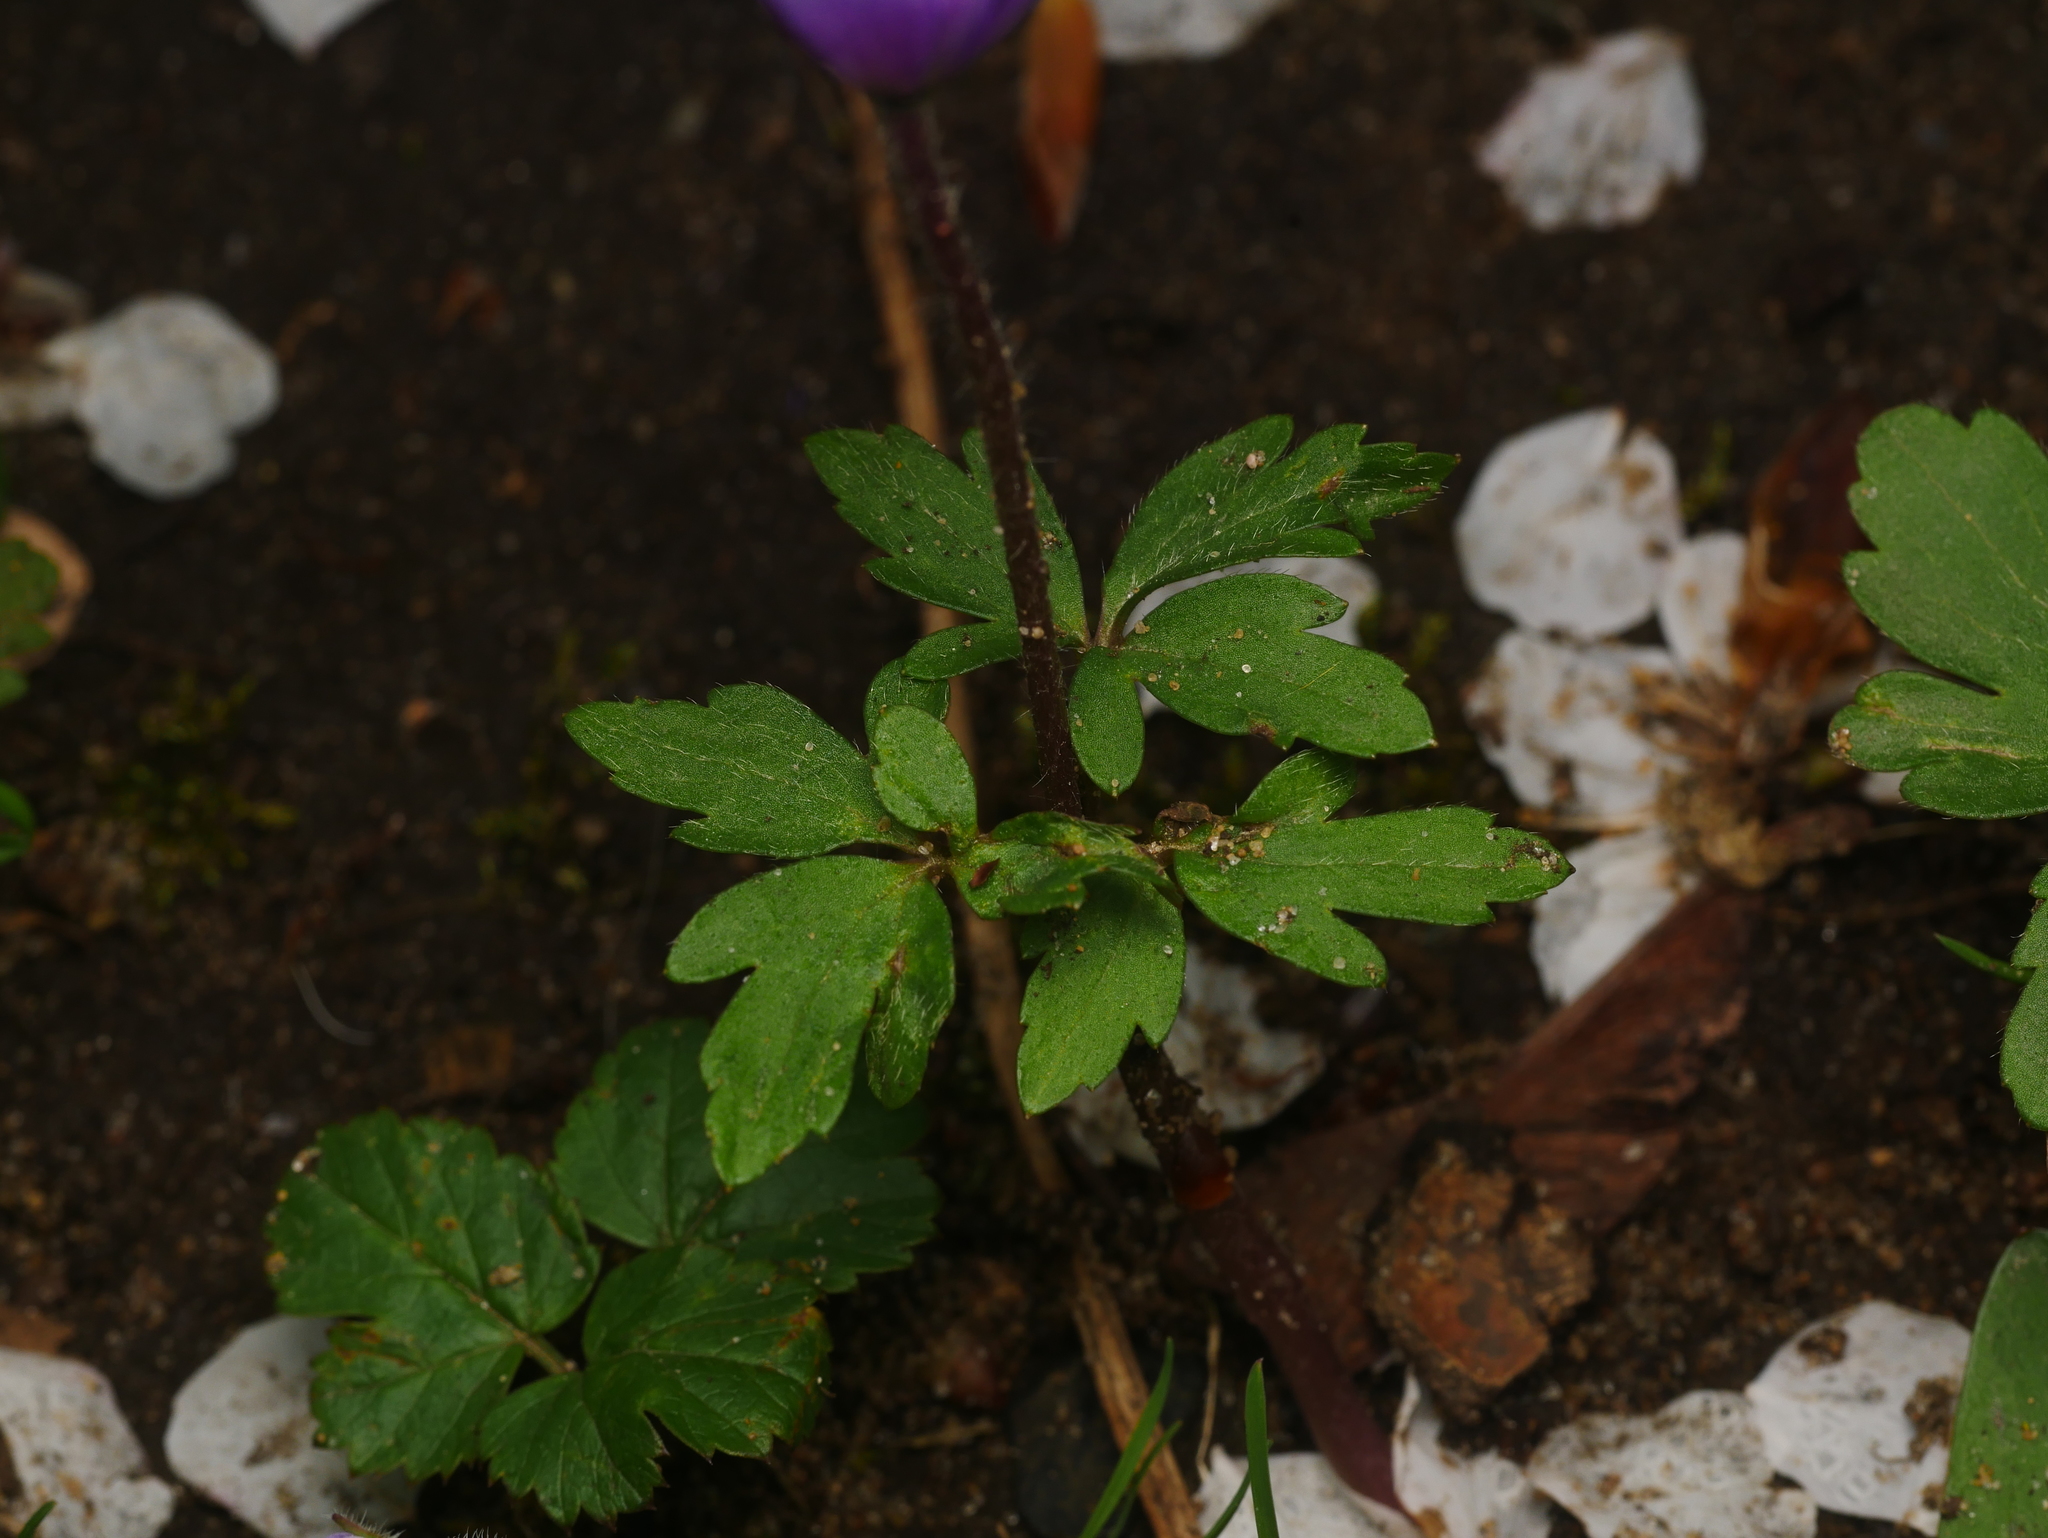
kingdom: Plantae
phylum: Tracheophyta
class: Magnoliopsida
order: Ranunculales
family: Ranunculaceae
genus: Anemone
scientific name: Anemone blanda
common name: Balkan anemone
